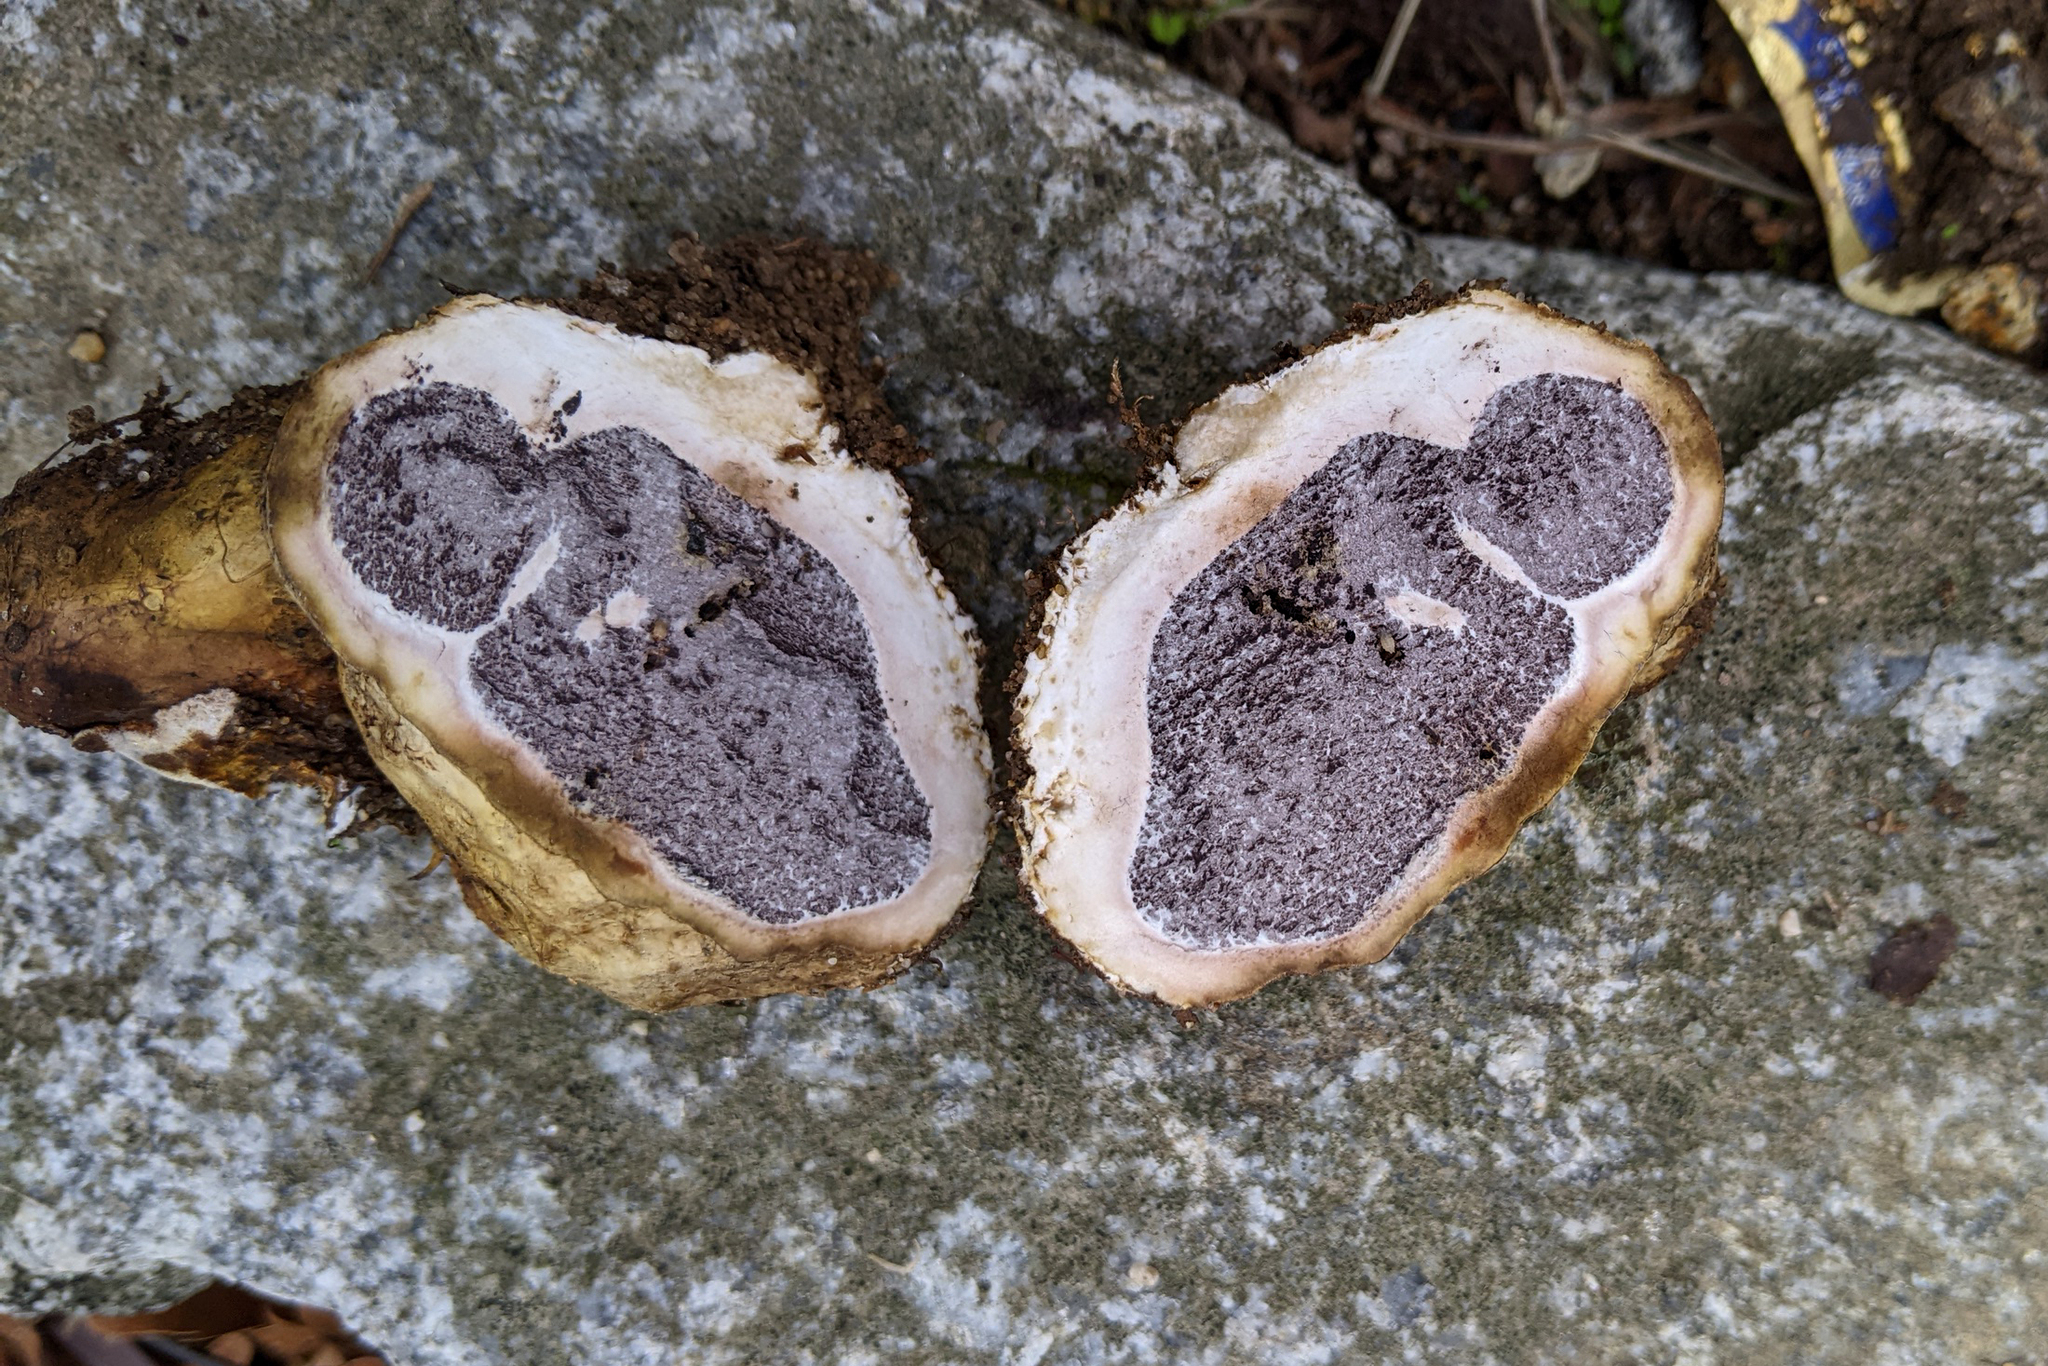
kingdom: Fungi
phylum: Basidiomycota
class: Agaricomycetes
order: Boletales
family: Sclerodermataceae
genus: Scleroderma
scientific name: Scleroderma polyrhizum
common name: Many-rooted earthball
